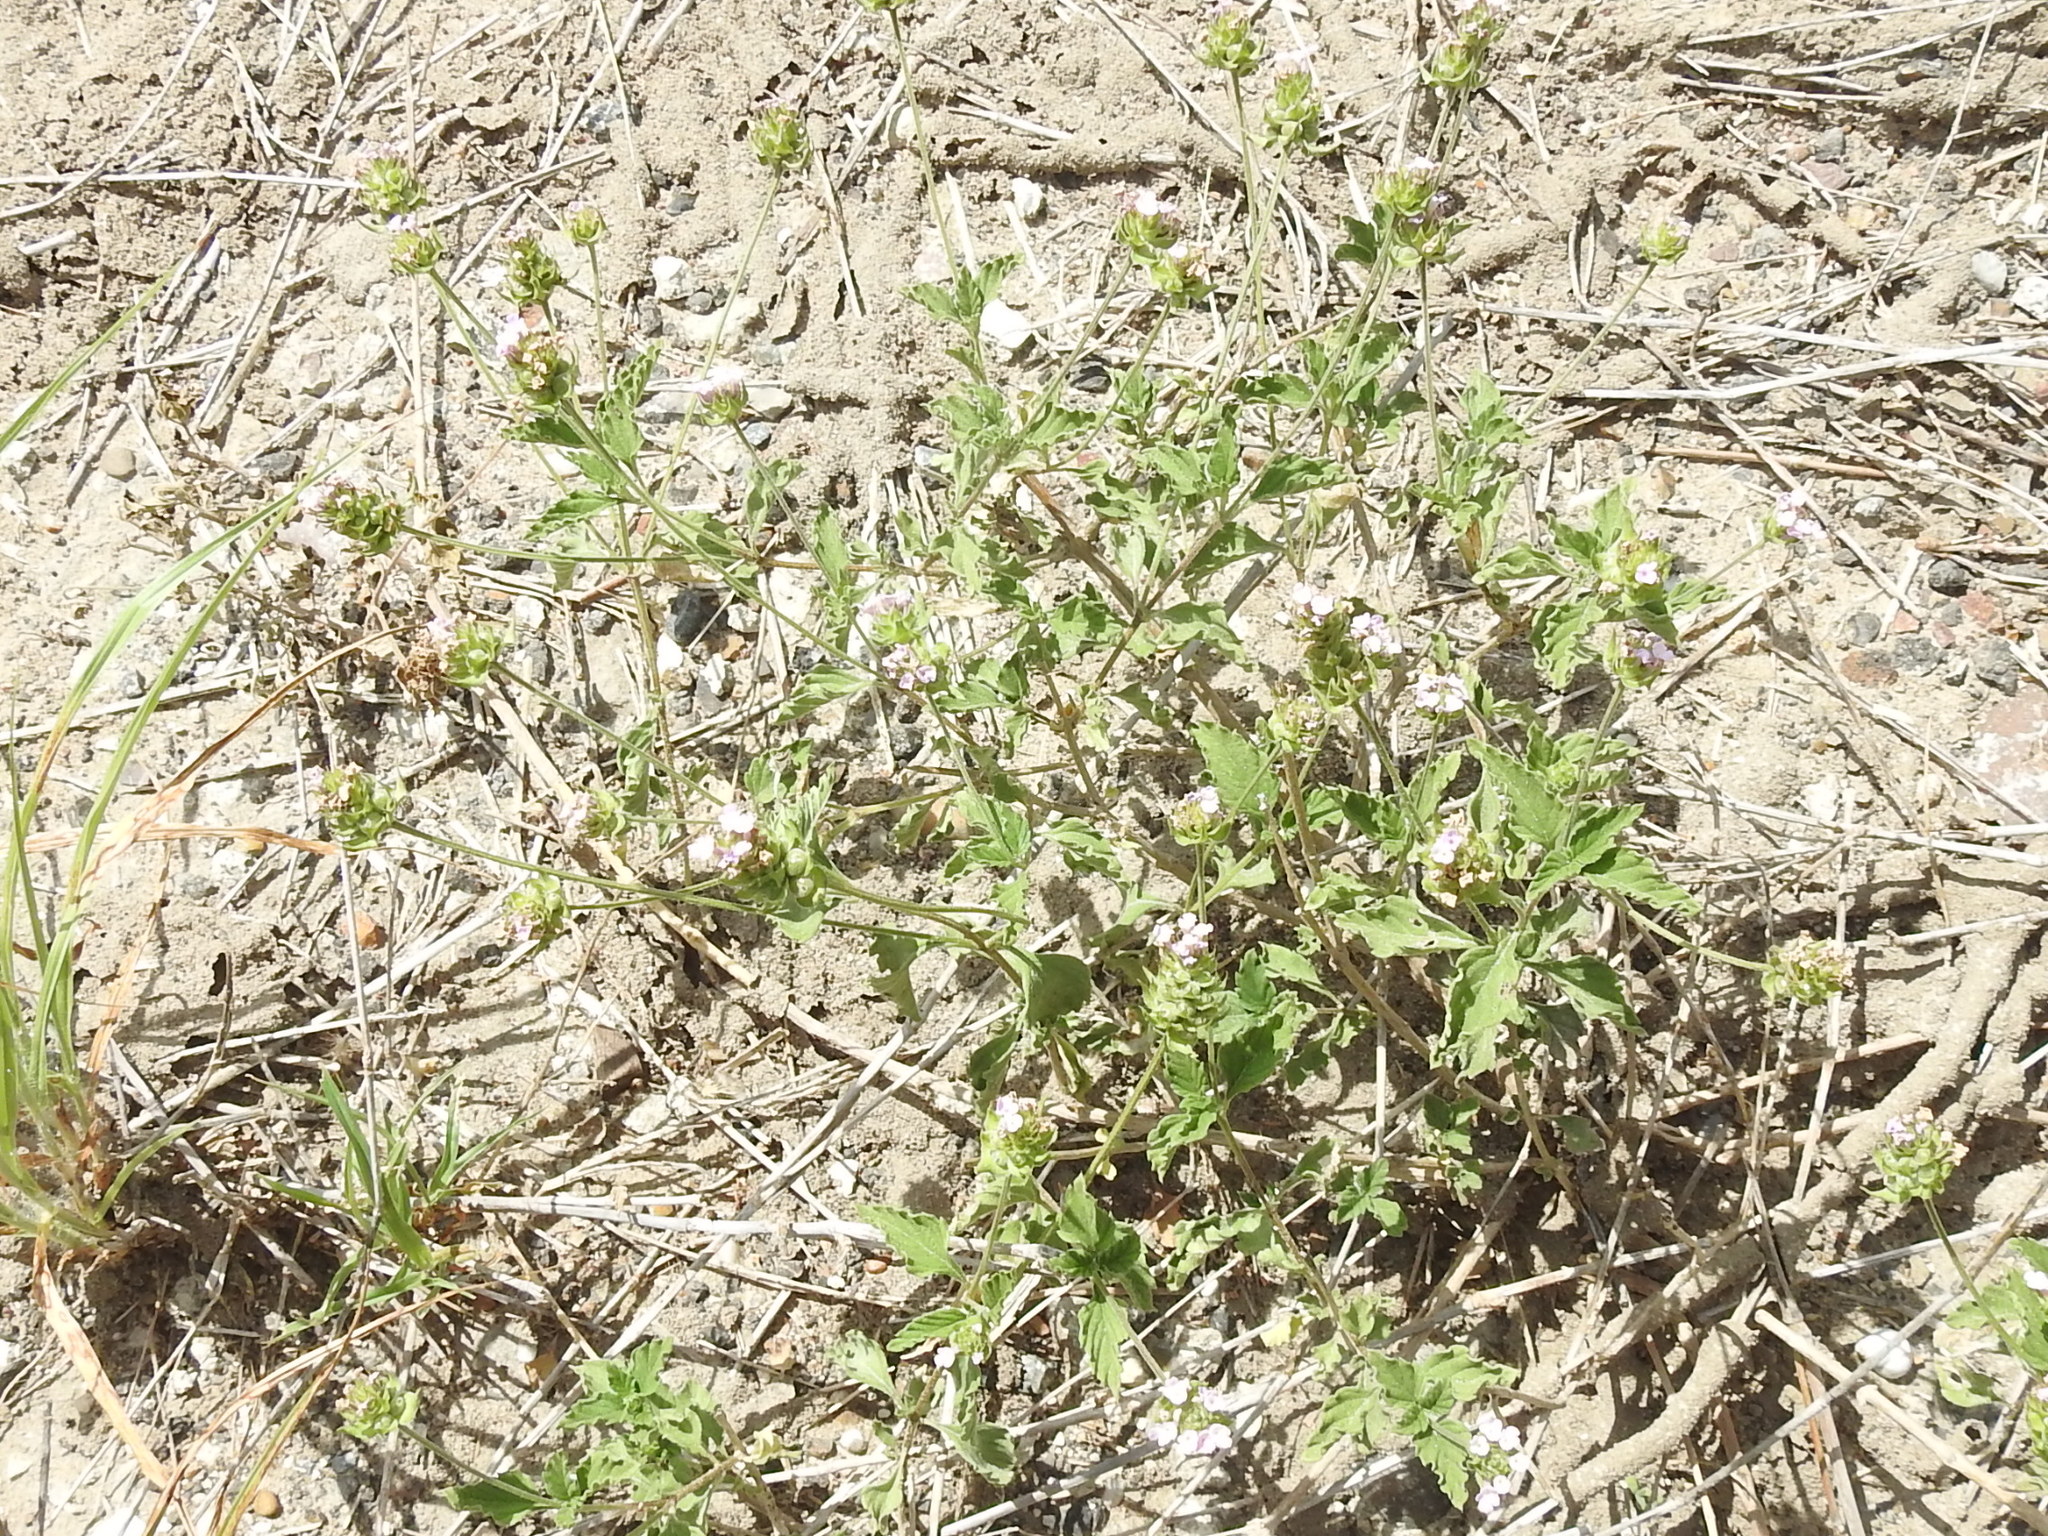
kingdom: Plantae
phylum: Tracheophyta
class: Magnoliopsida
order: Lamiales
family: Verbenaceae
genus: Lantana
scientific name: Lantana achyranthifolia
